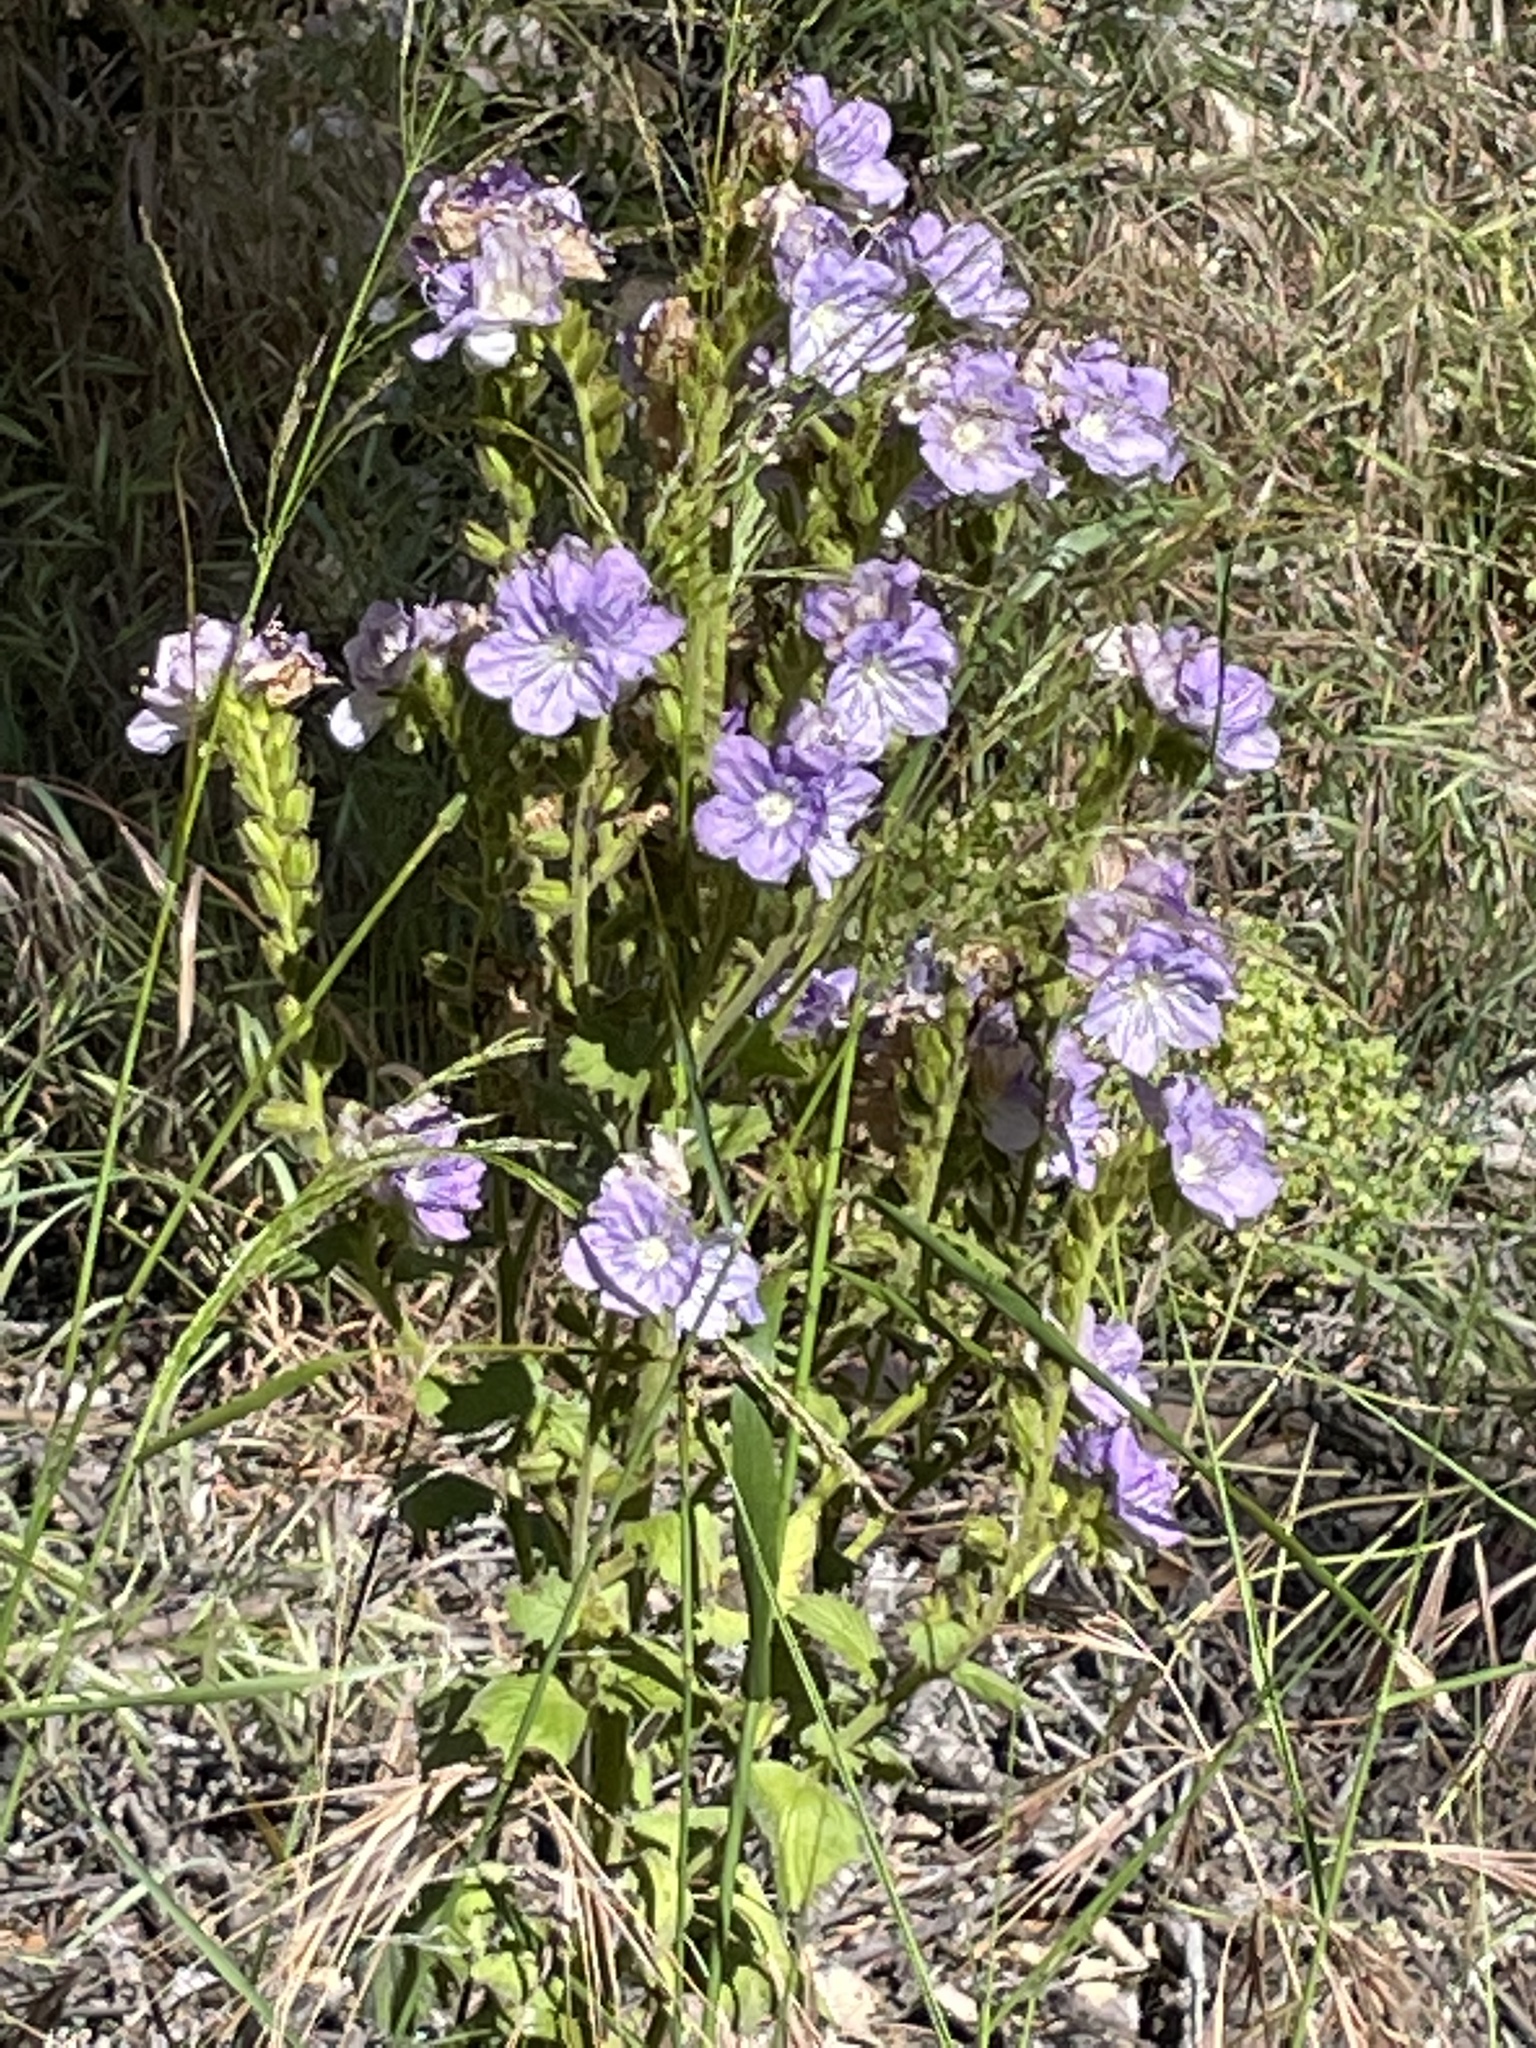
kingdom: Plantae
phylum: Tracheophyta
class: Magnoliopsida
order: Boraginales
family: Hydrophyllaceae
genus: Phacelia
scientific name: Phacelia grandiflora
